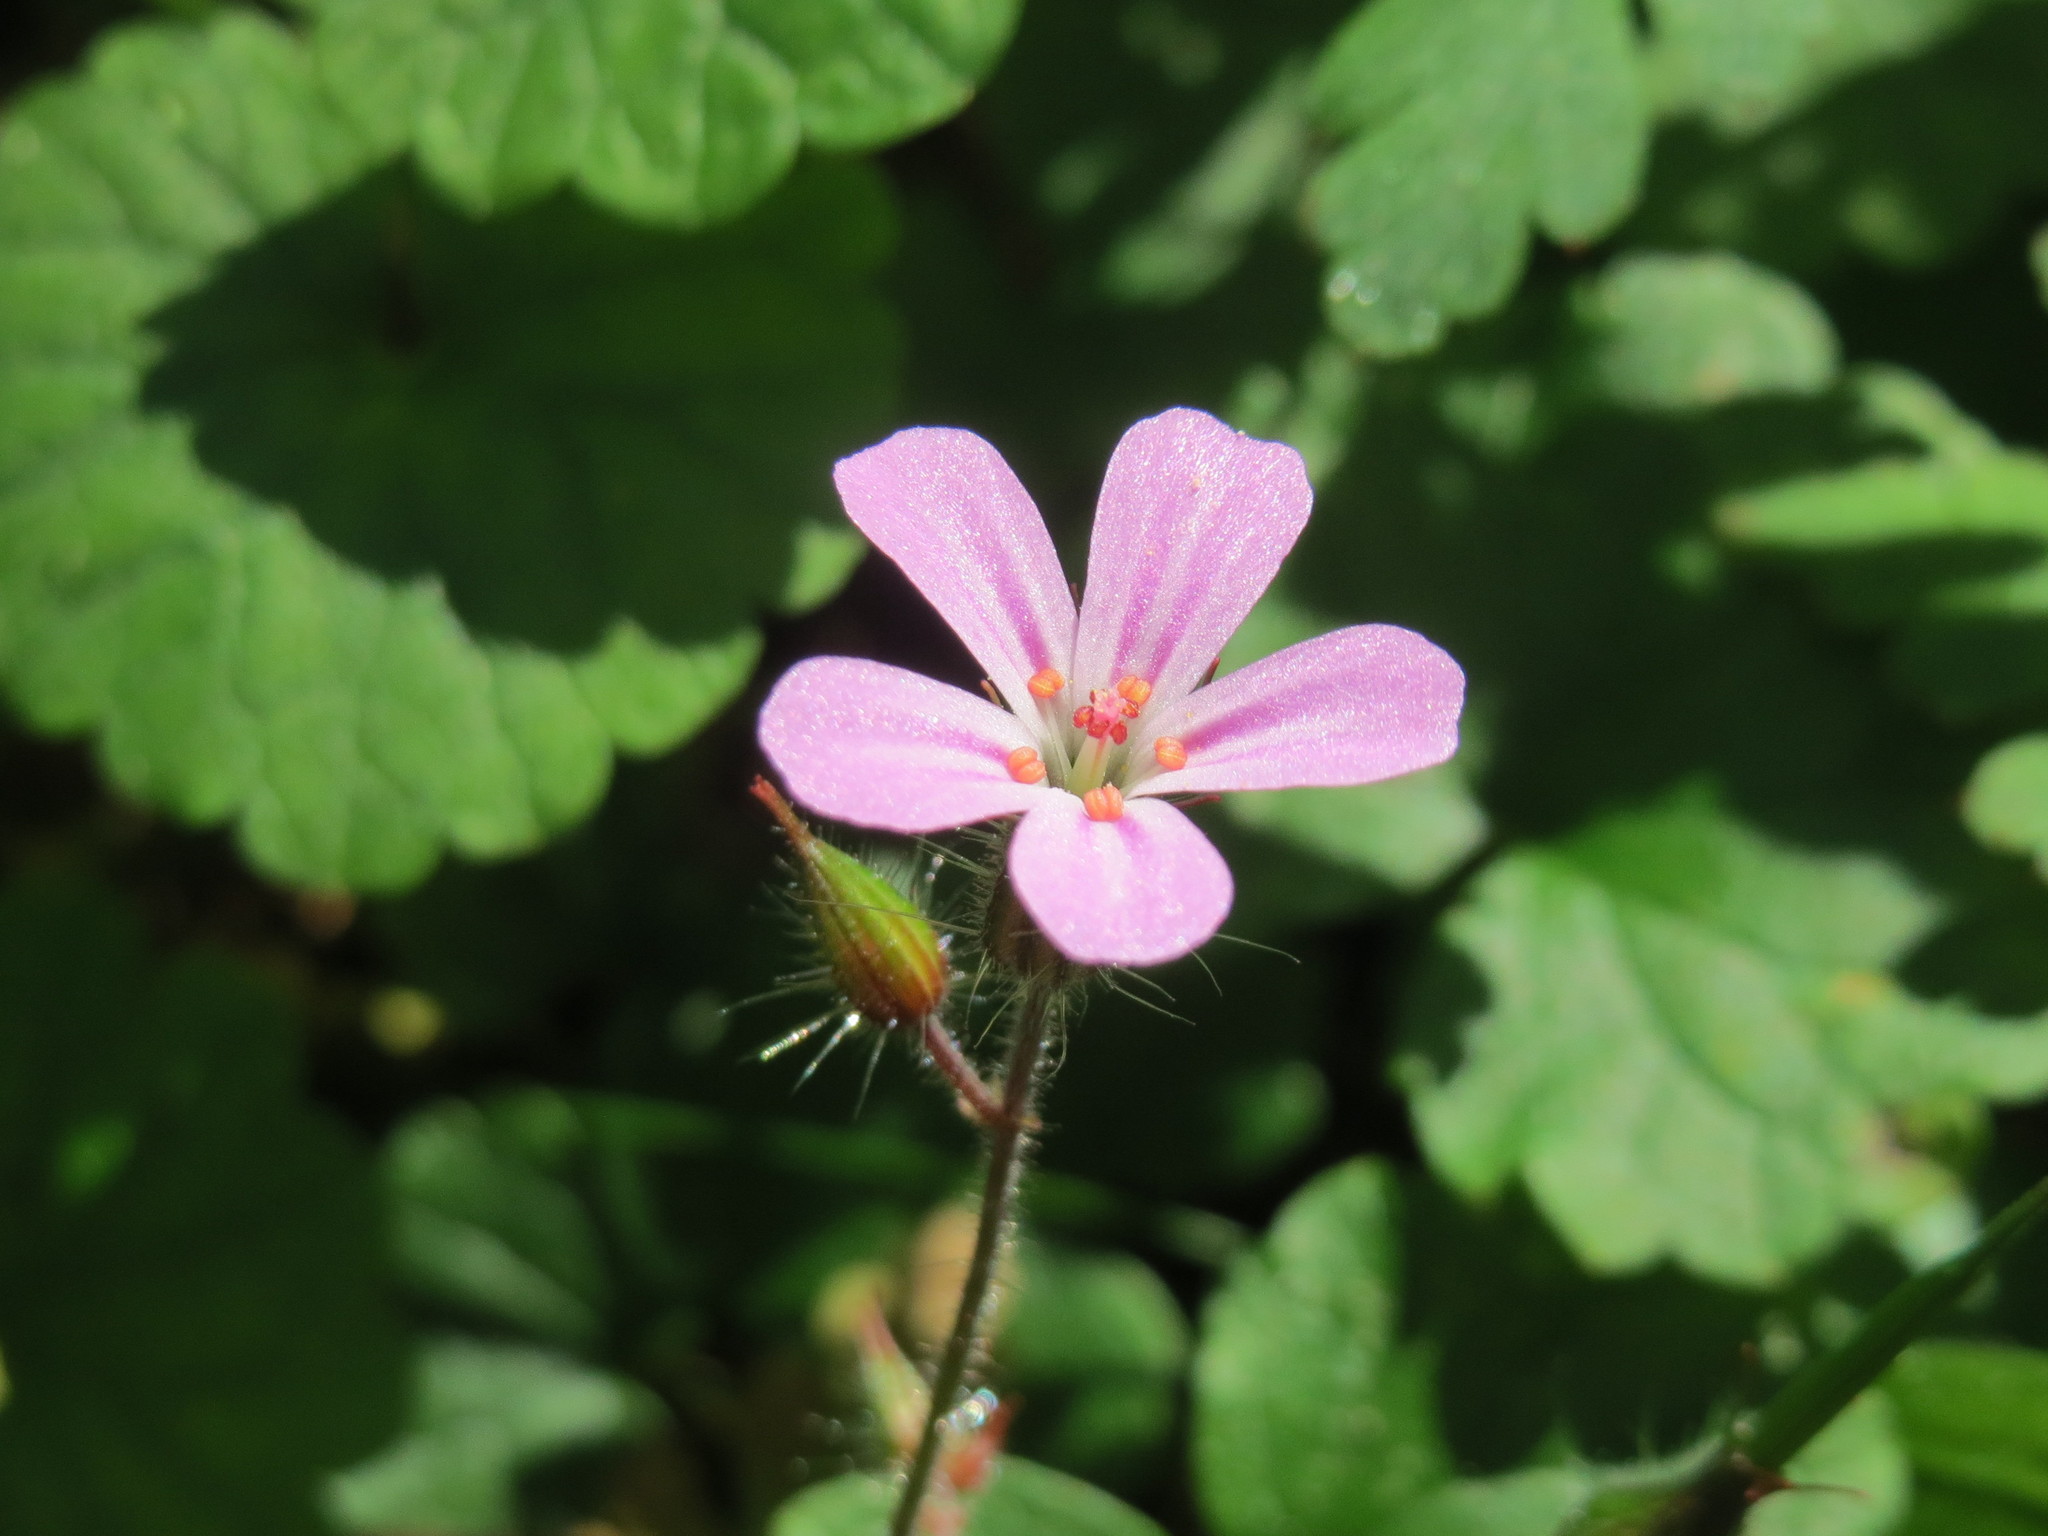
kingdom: Plantae
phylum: Tracheophyta
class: Magnoliopsida
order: Geraniales
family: Geraniaceae
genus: Geranium
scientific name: Geranium robertianum
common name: Herb-robert
